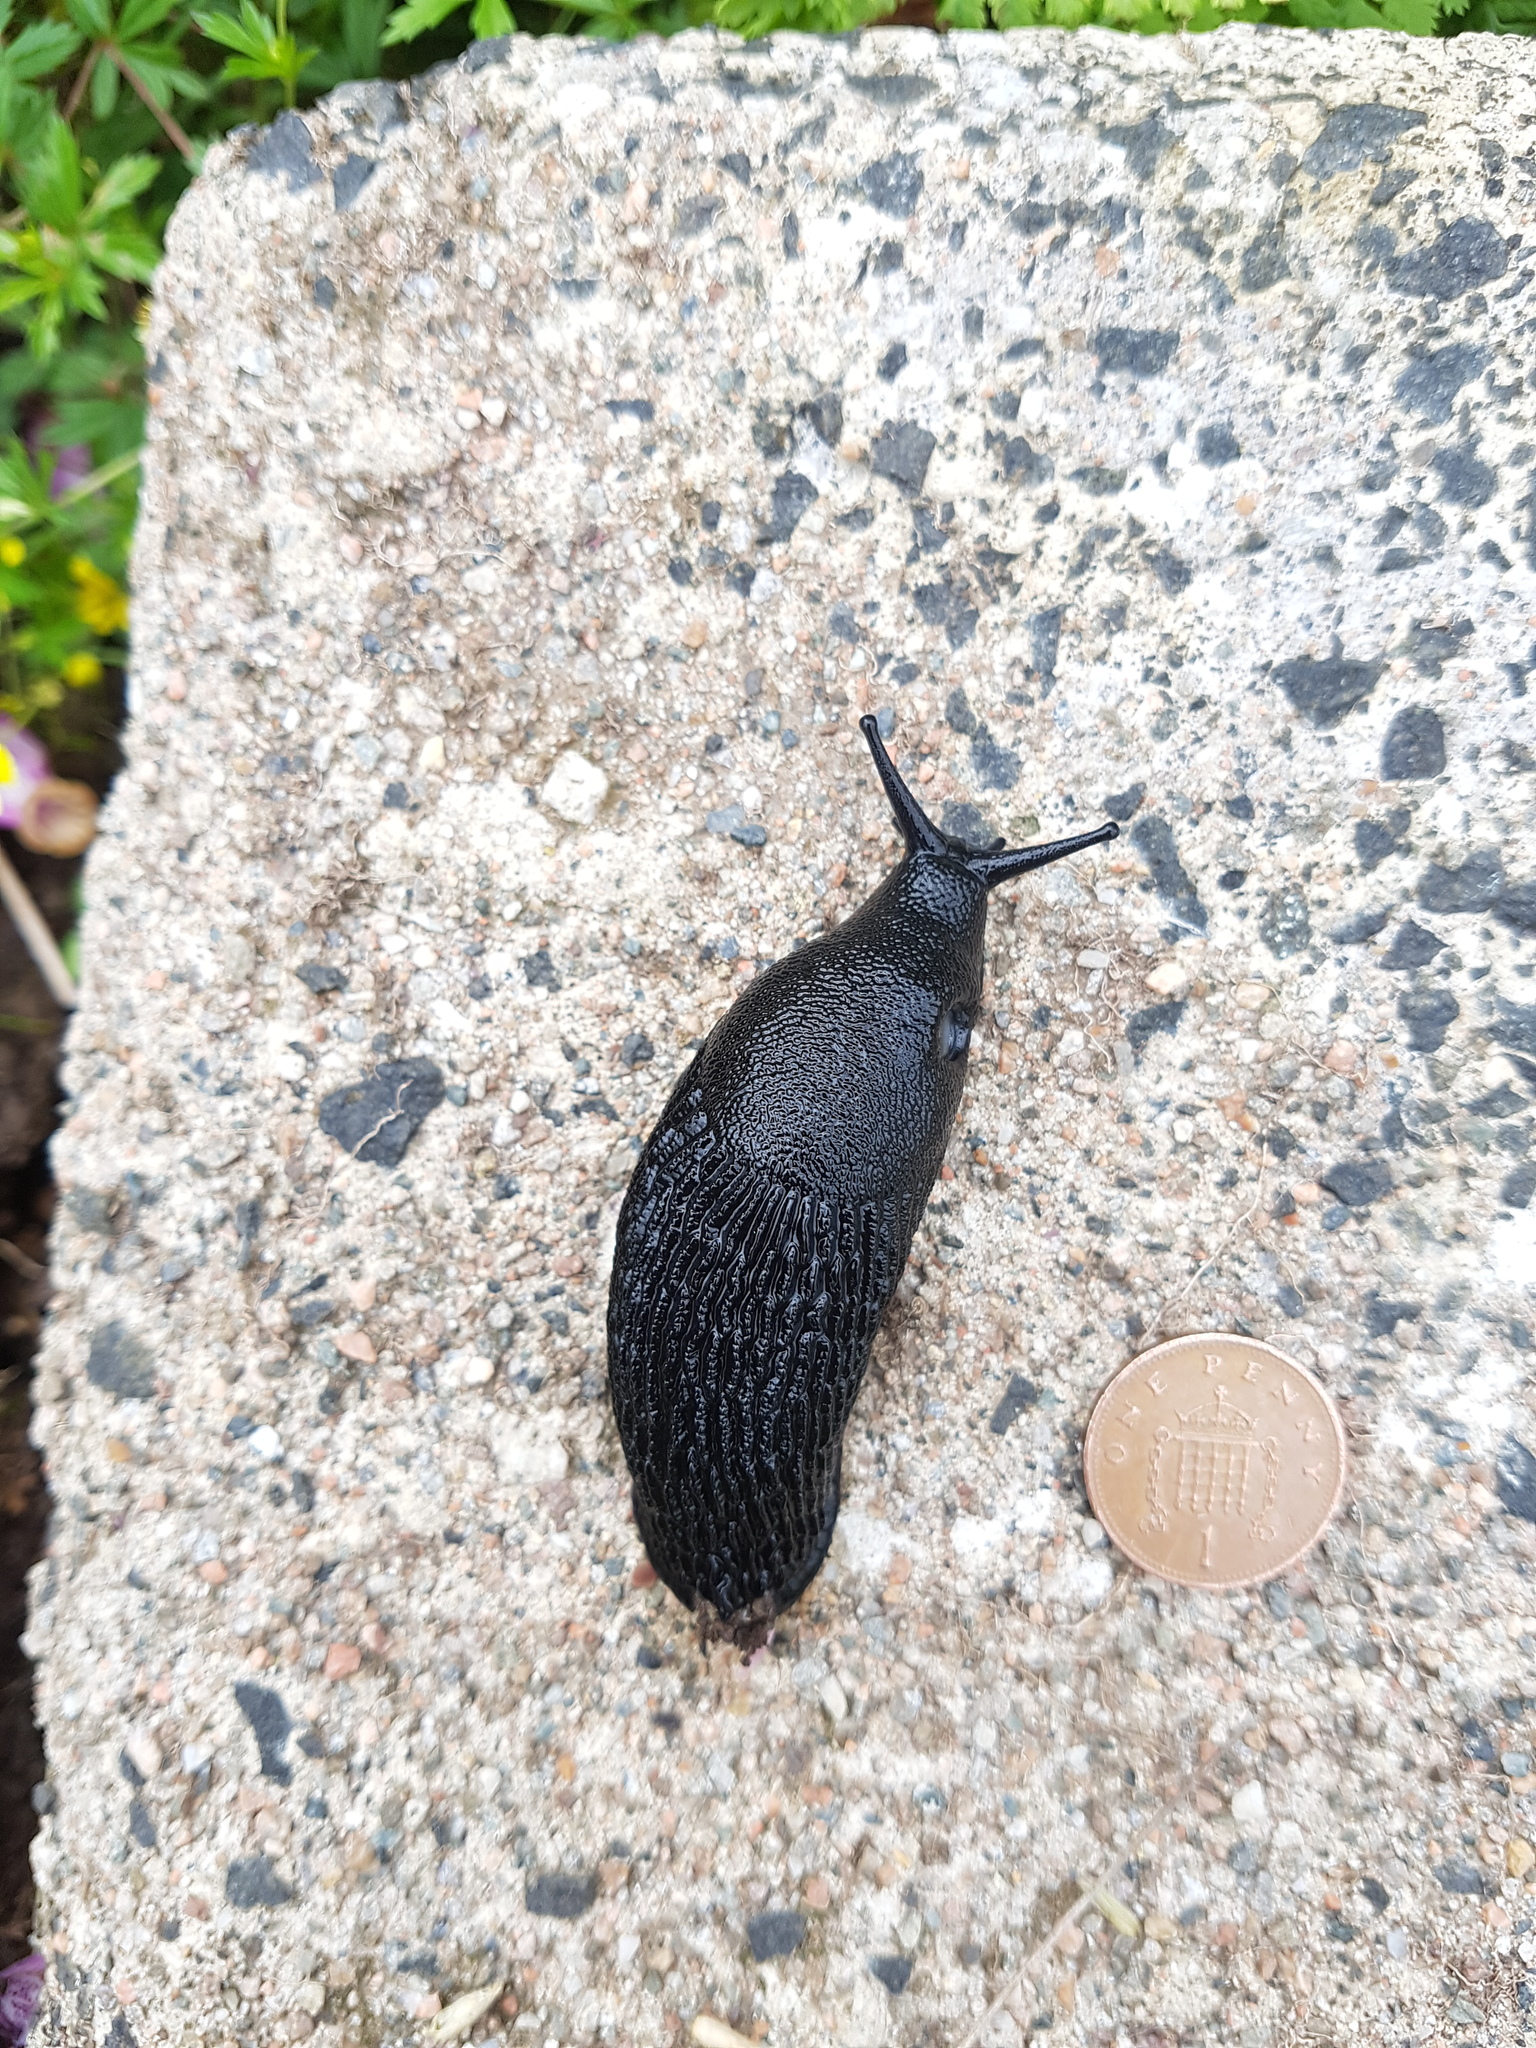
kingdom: Animalia
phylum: Mollusca
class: Gastropoda
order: Stylommatophora
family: Arionidae
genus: Arion
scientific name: Arion ater
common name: Black arion
